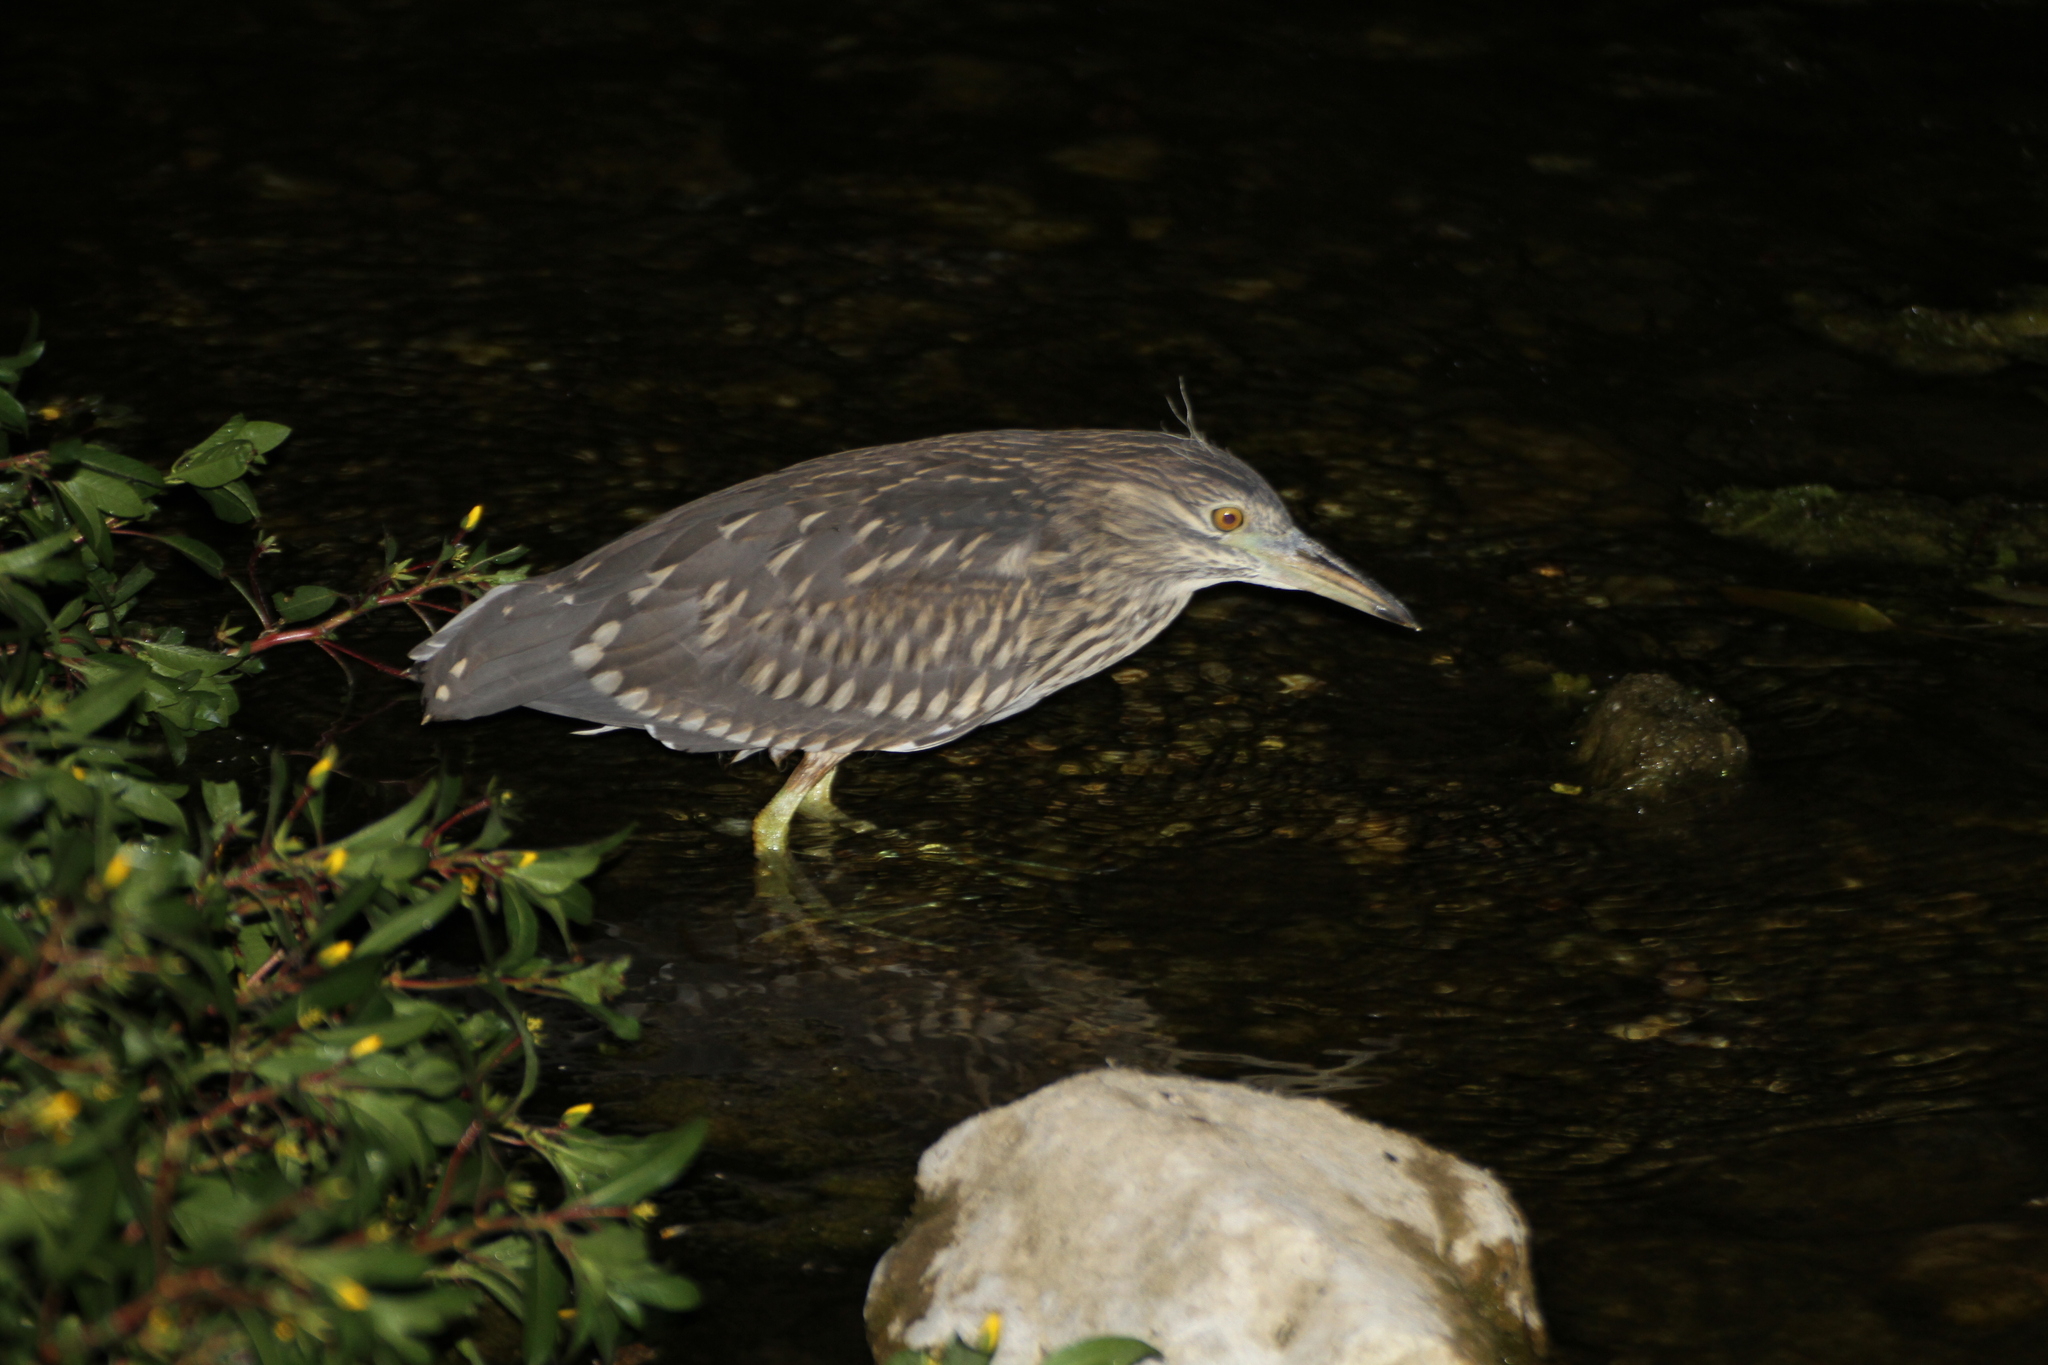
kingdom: Animalia
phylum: Chordata
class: Aves
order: Pelecaniformes
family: Ardeidae
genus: Nycticorax
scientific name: Nycticorax nycticorax
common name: Black-crowned night heron
